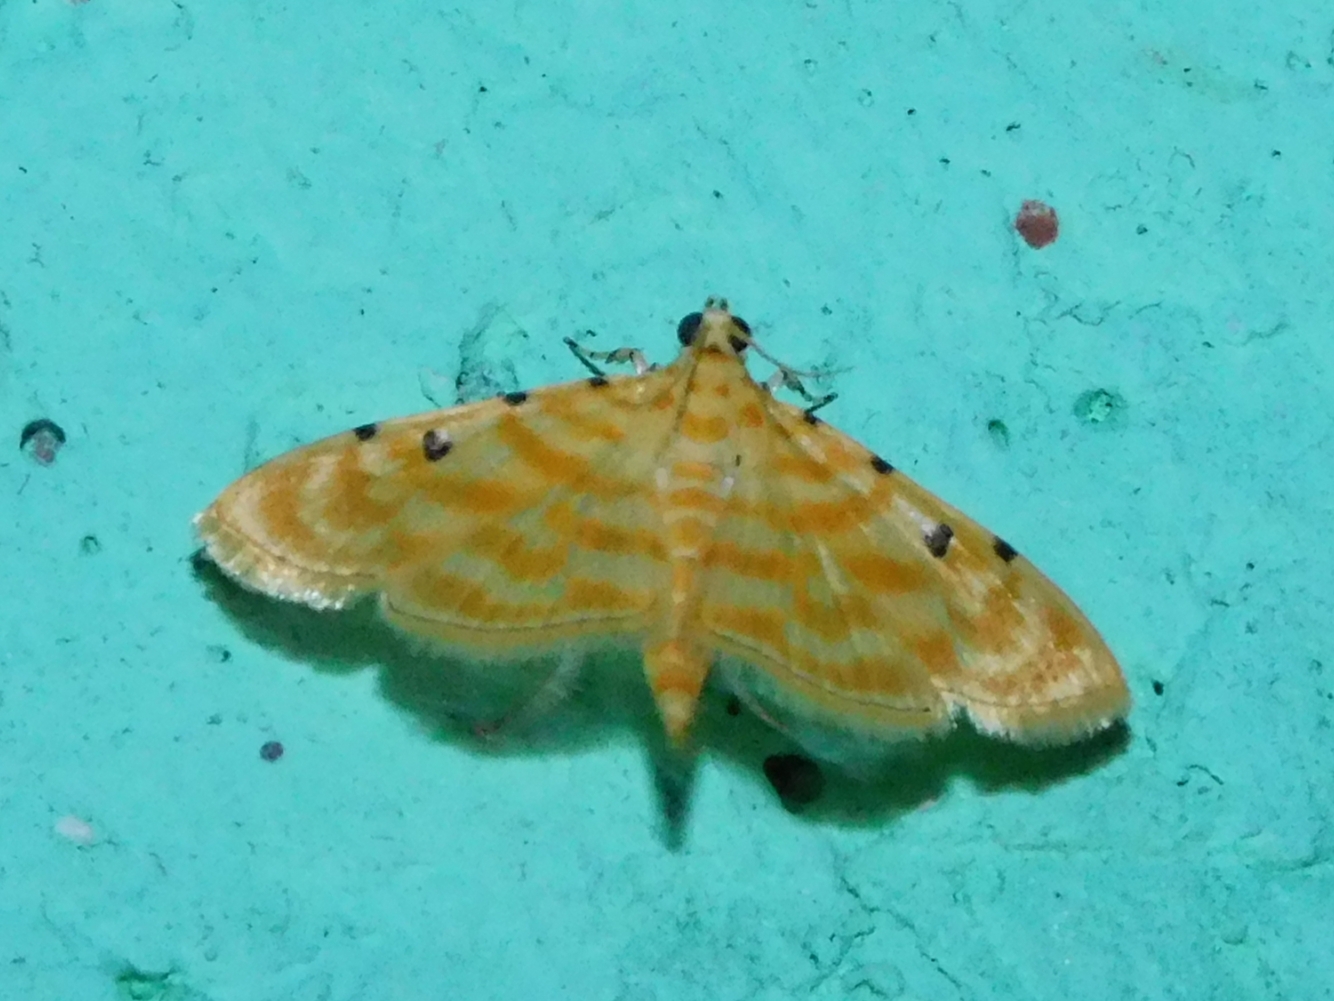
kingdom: Animalia
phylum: Arthropoda
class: Insecta
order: Lepidoptera
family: Crambidae
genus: Notarcha
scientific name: Notarcha aurolinealis
